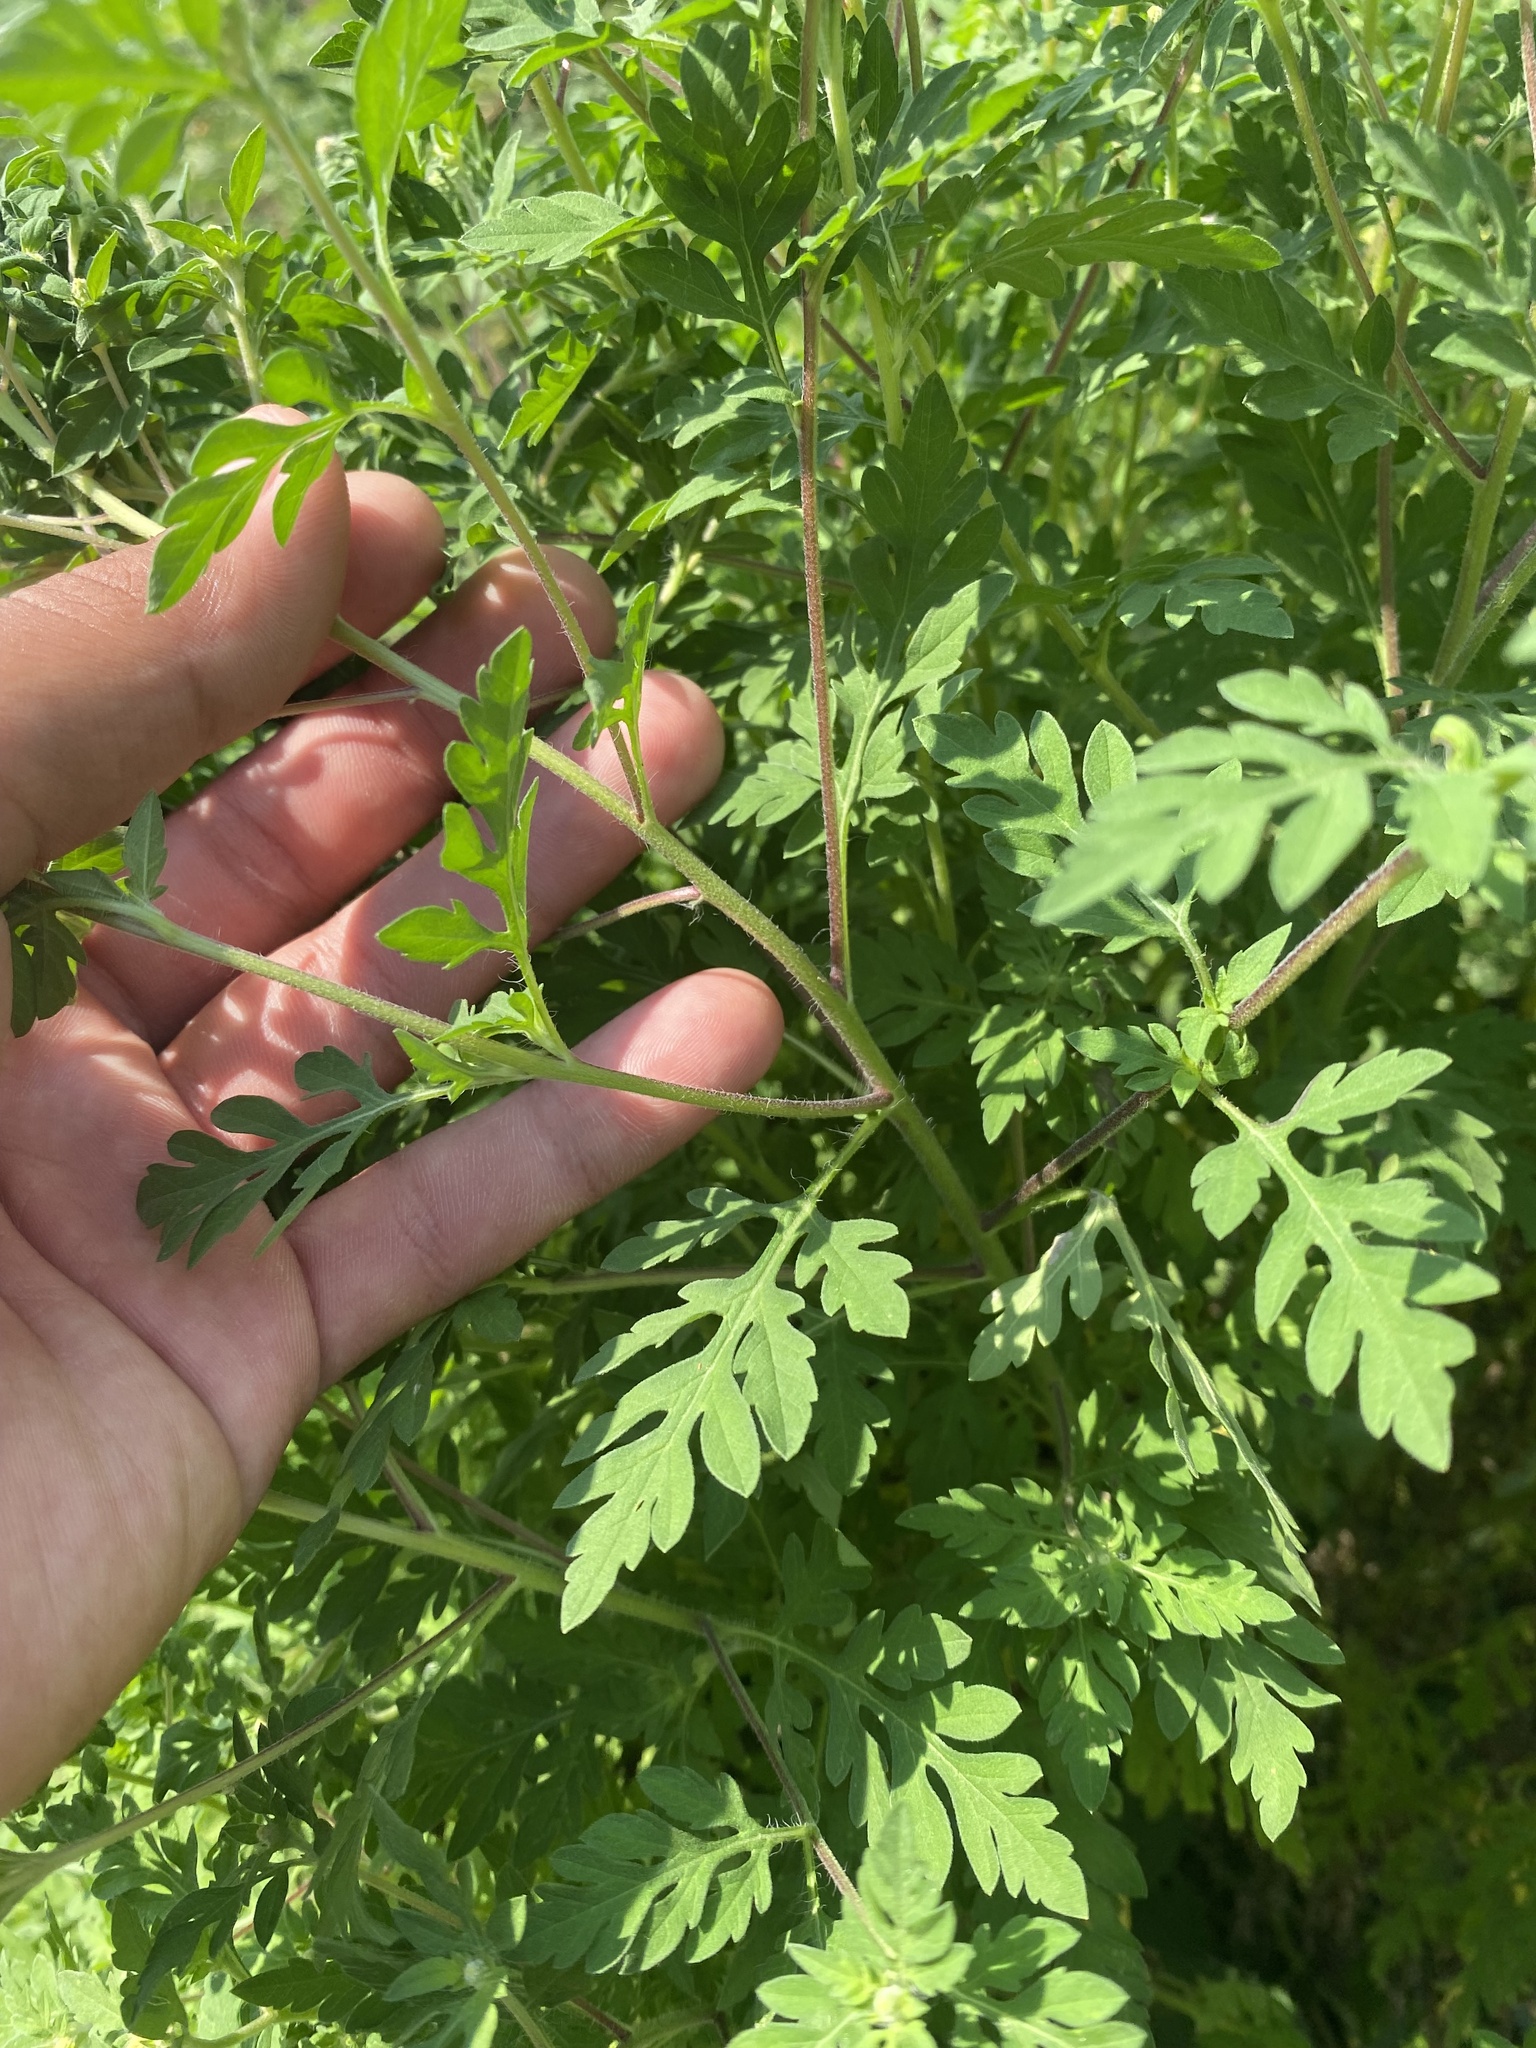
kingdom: Plantae
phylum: Tracheophyta
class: Magnoliopsida
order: Asterales
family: Asteraceae
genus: Ambrosia
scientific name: Ambrosia artemisiifolia
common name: Annual ragweed
